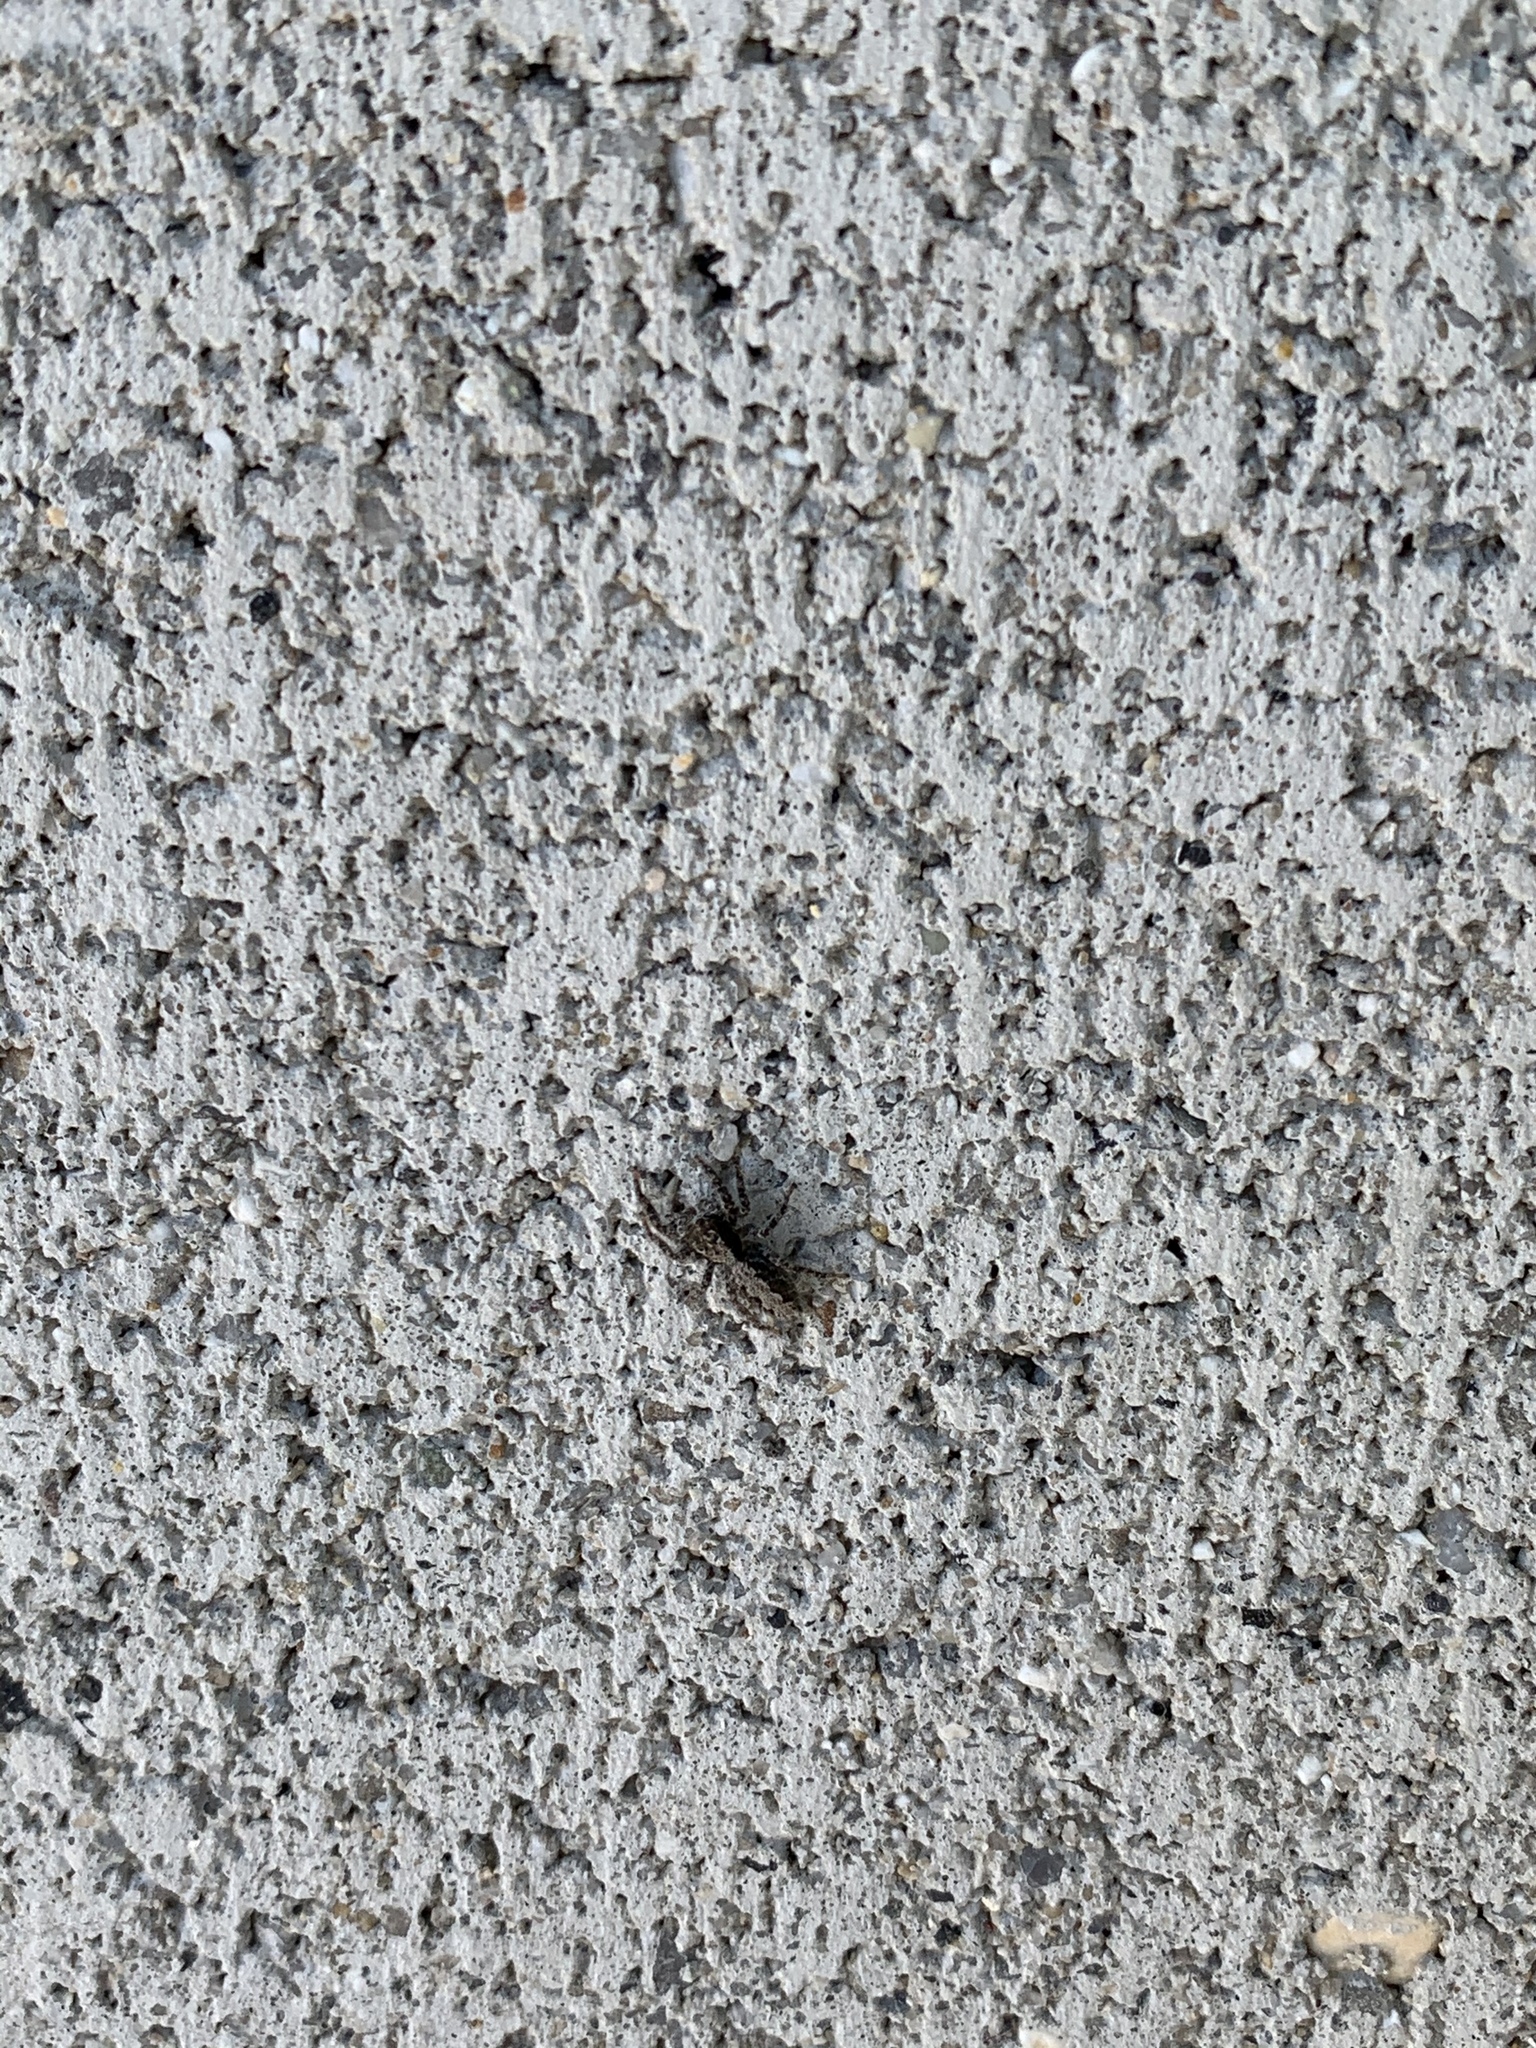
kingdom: Animalia
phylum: Arthropoda
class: Arachnida
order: Araneae
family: Salticidae
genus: Platycryptus
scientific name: Platycryptus californicus
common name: Jumping spiders
